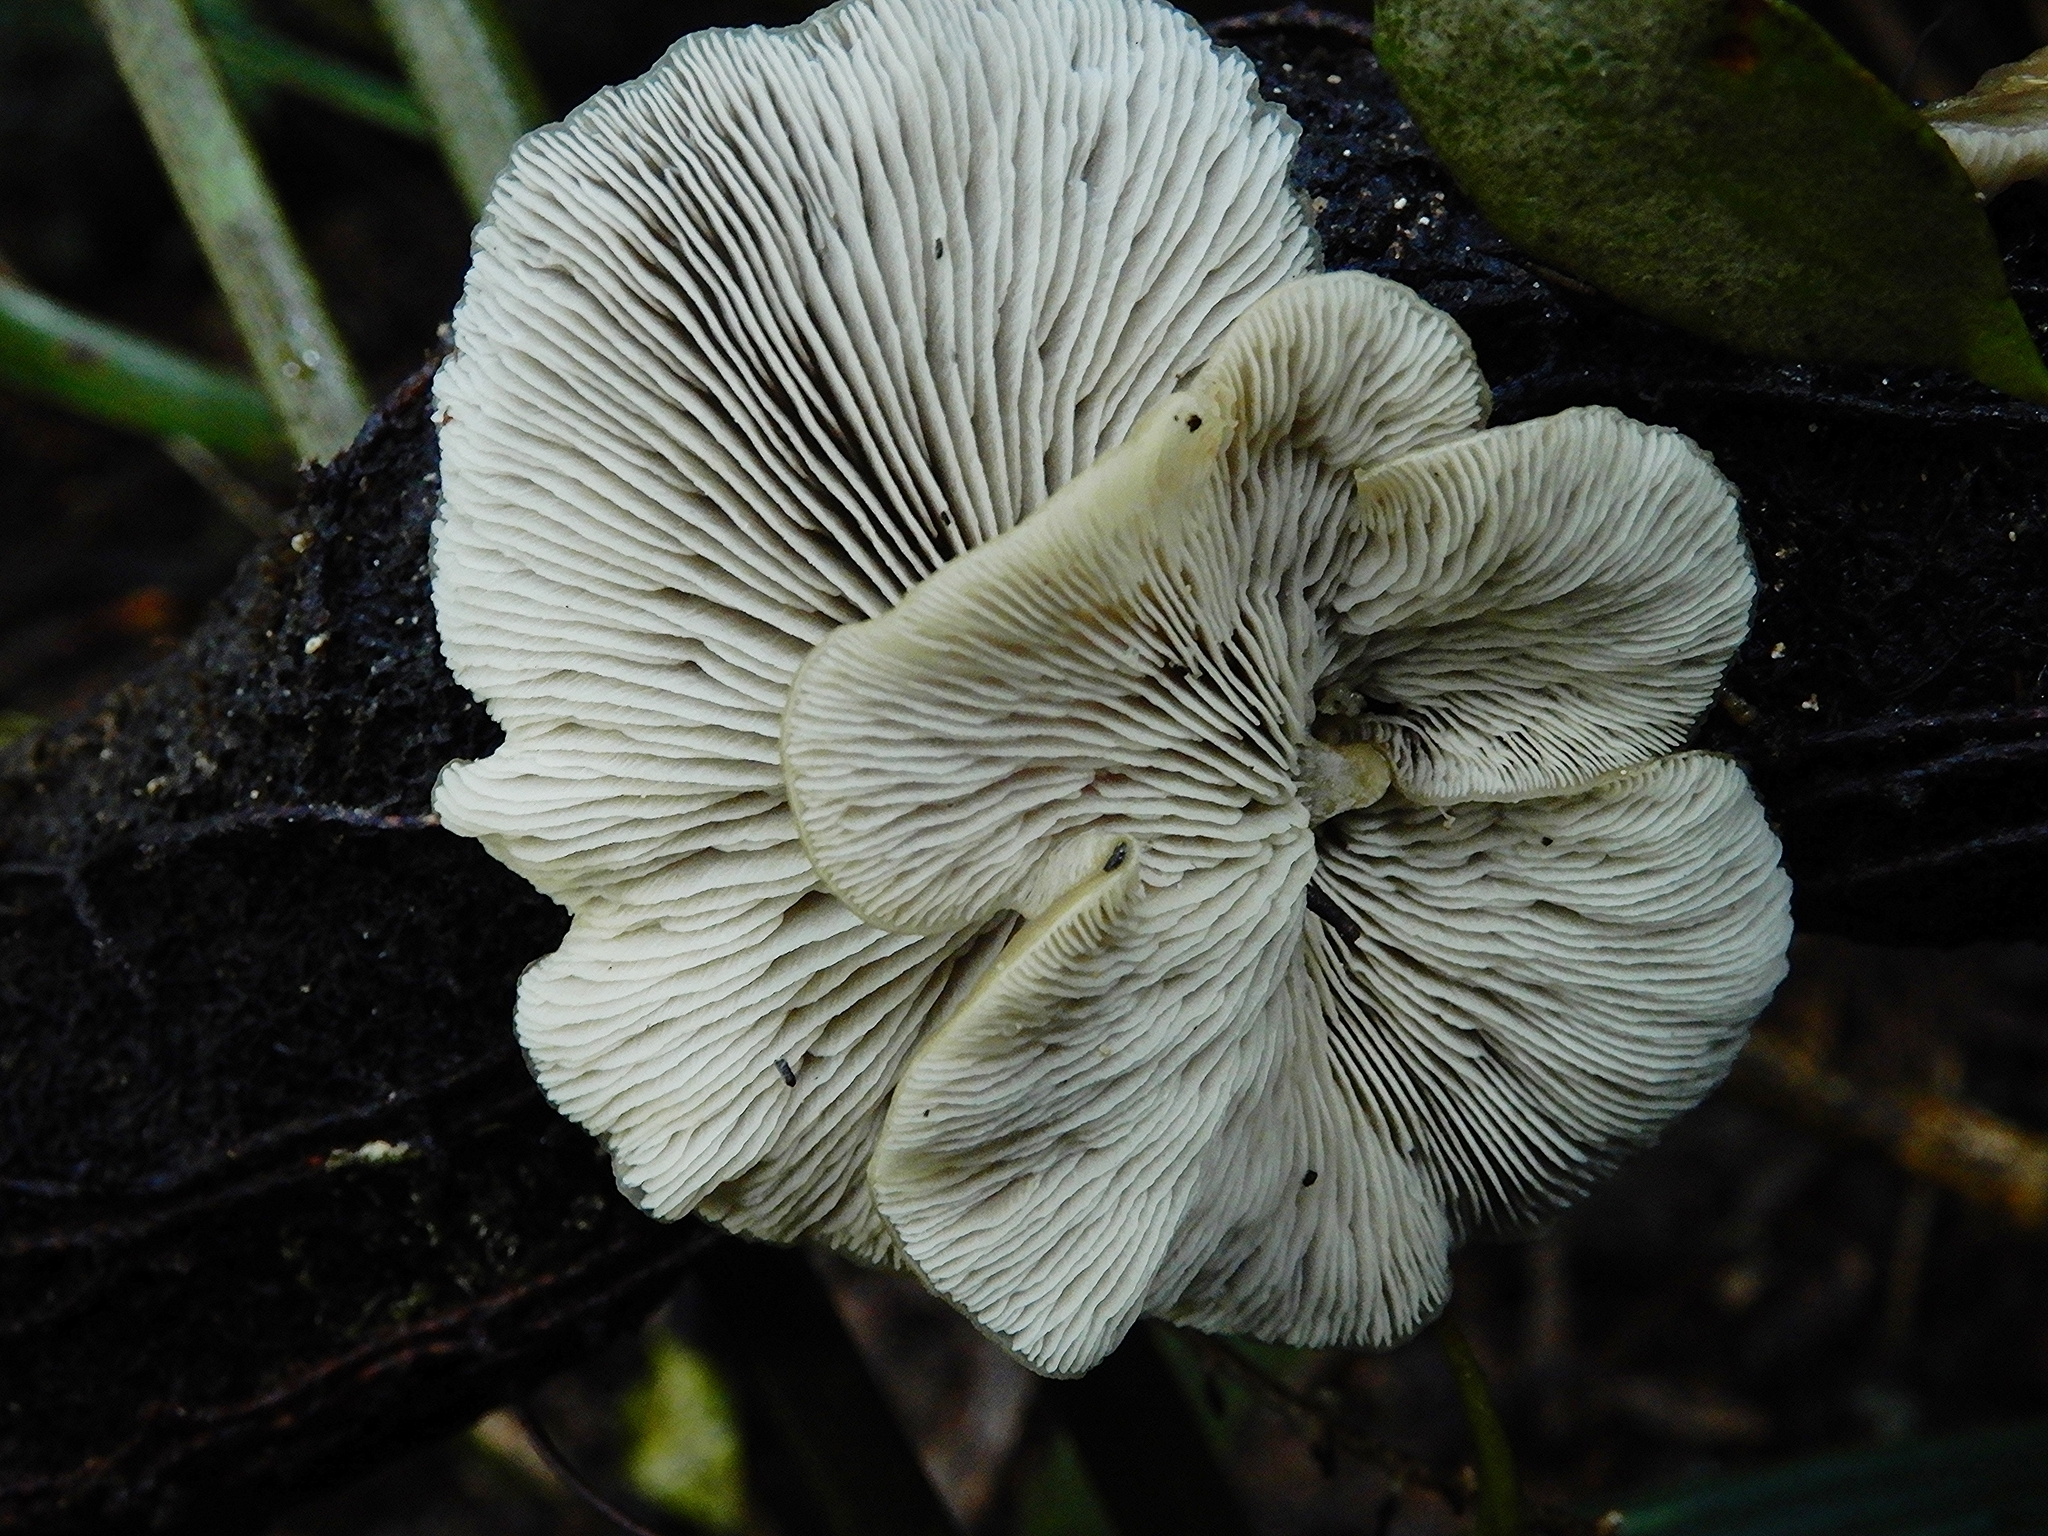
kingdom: Fungi
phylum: Basidiomycota
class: Agaricomycetes
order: Agaricales
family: Tricholomataceae
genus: Conchomyces
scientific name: Conchomyces bursiformis
